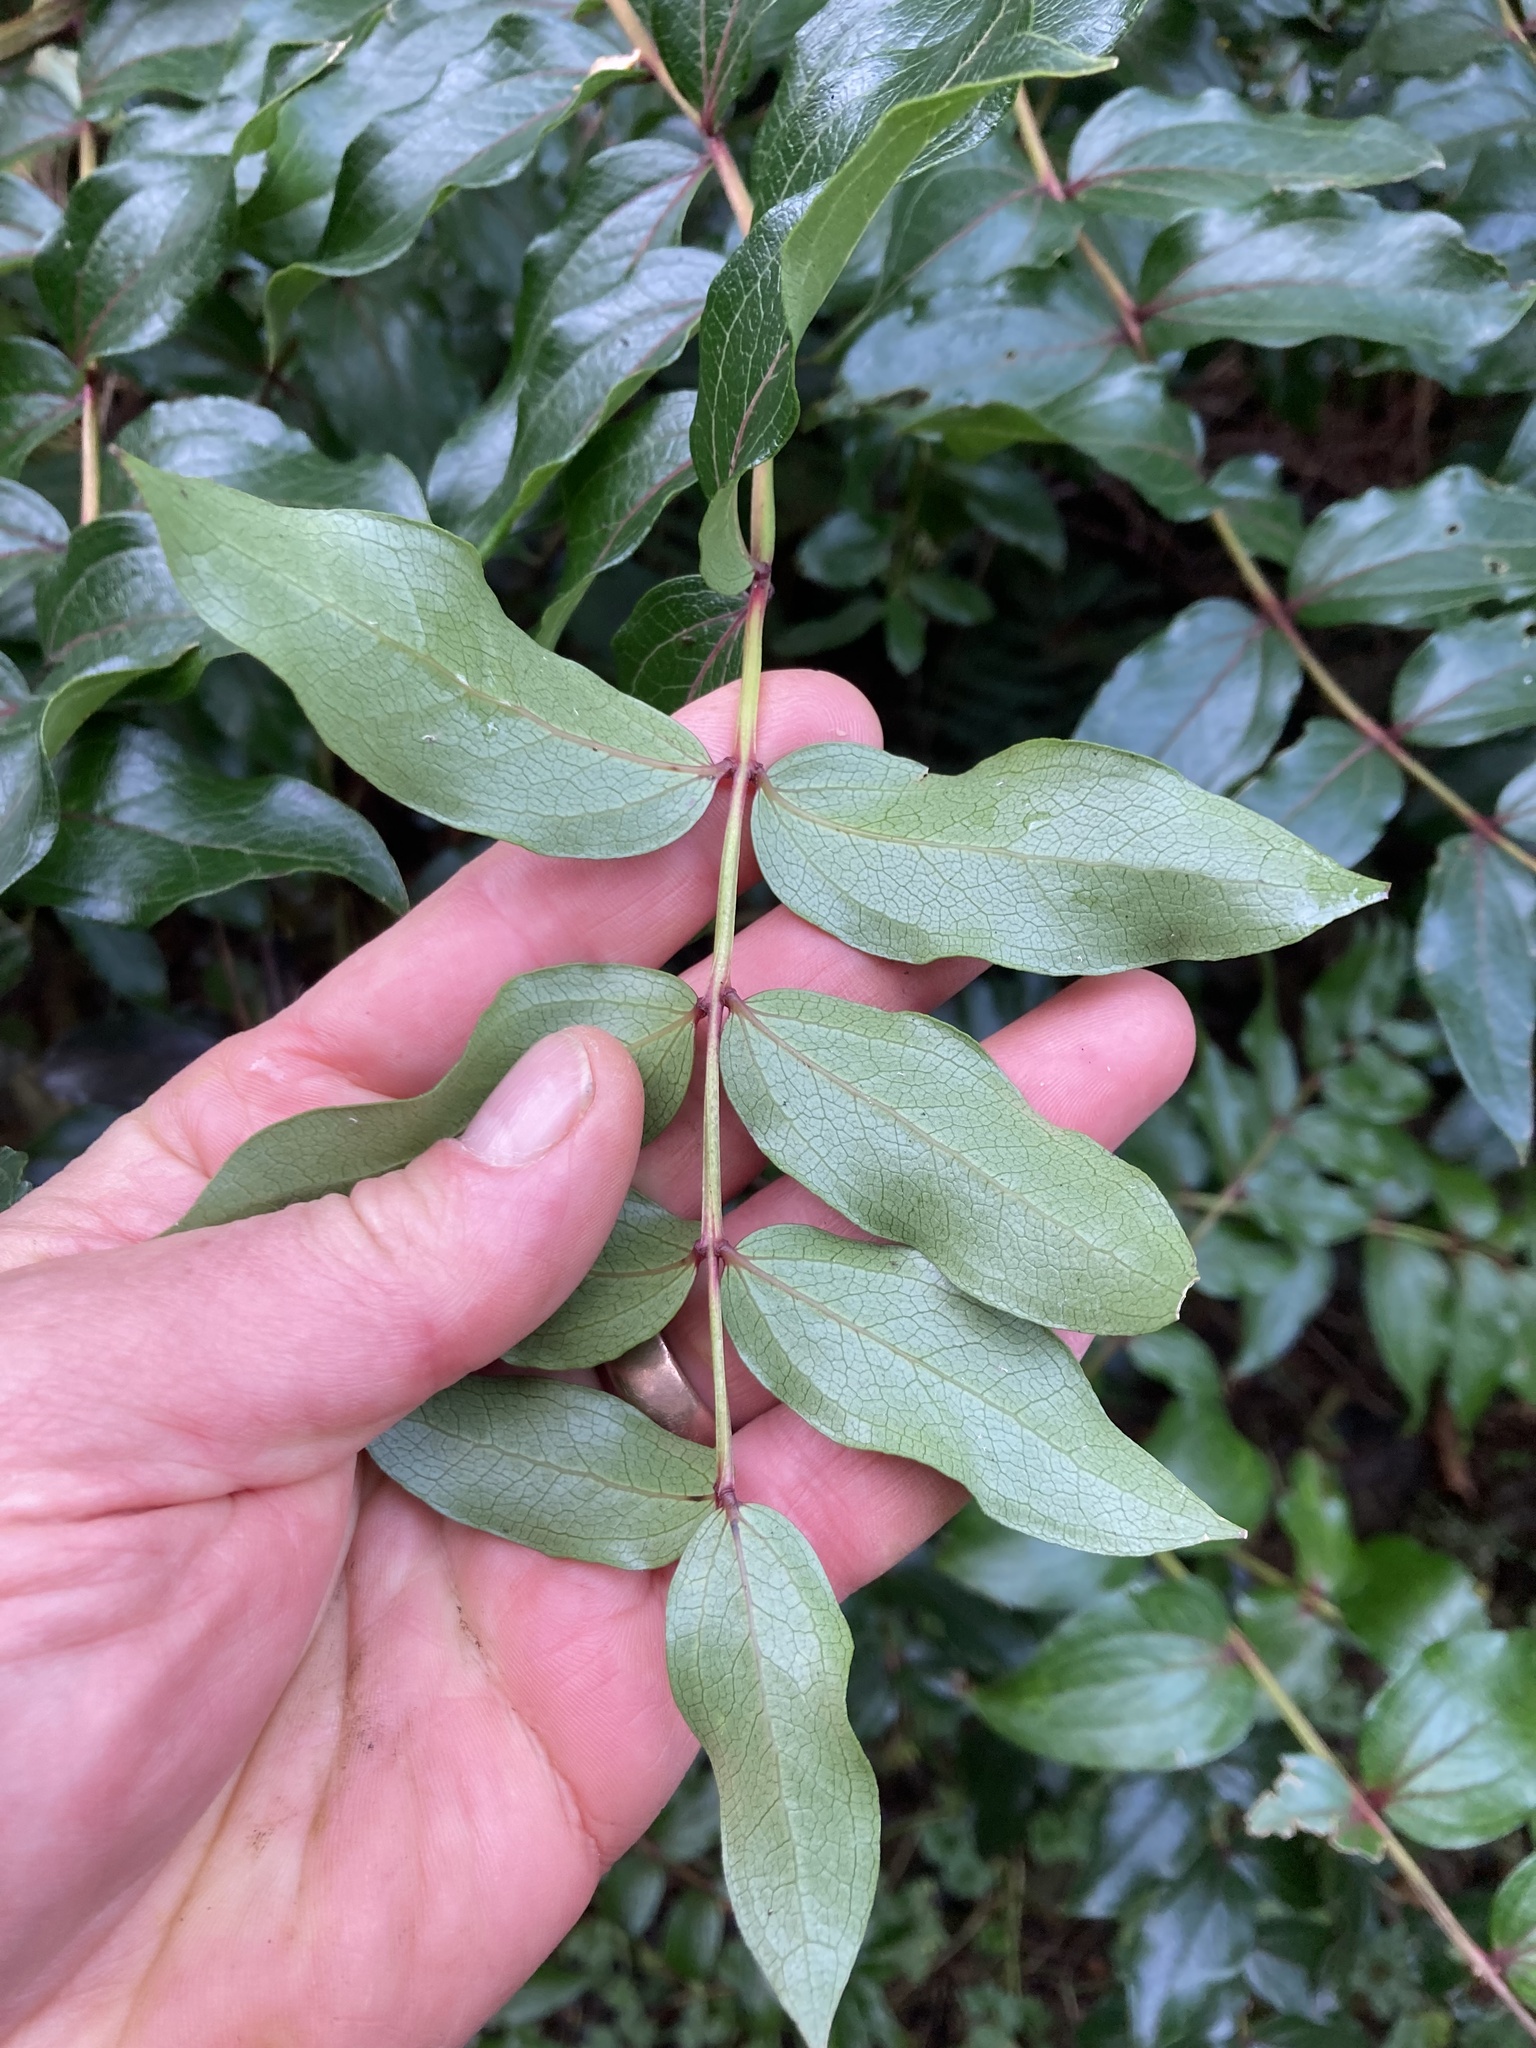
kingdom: Plantae
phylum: Tracheophyta
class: Magnoliopsida
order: Cucurbitales
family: Coriariaceae
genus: Coriaria
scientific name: Coriaria arborea
